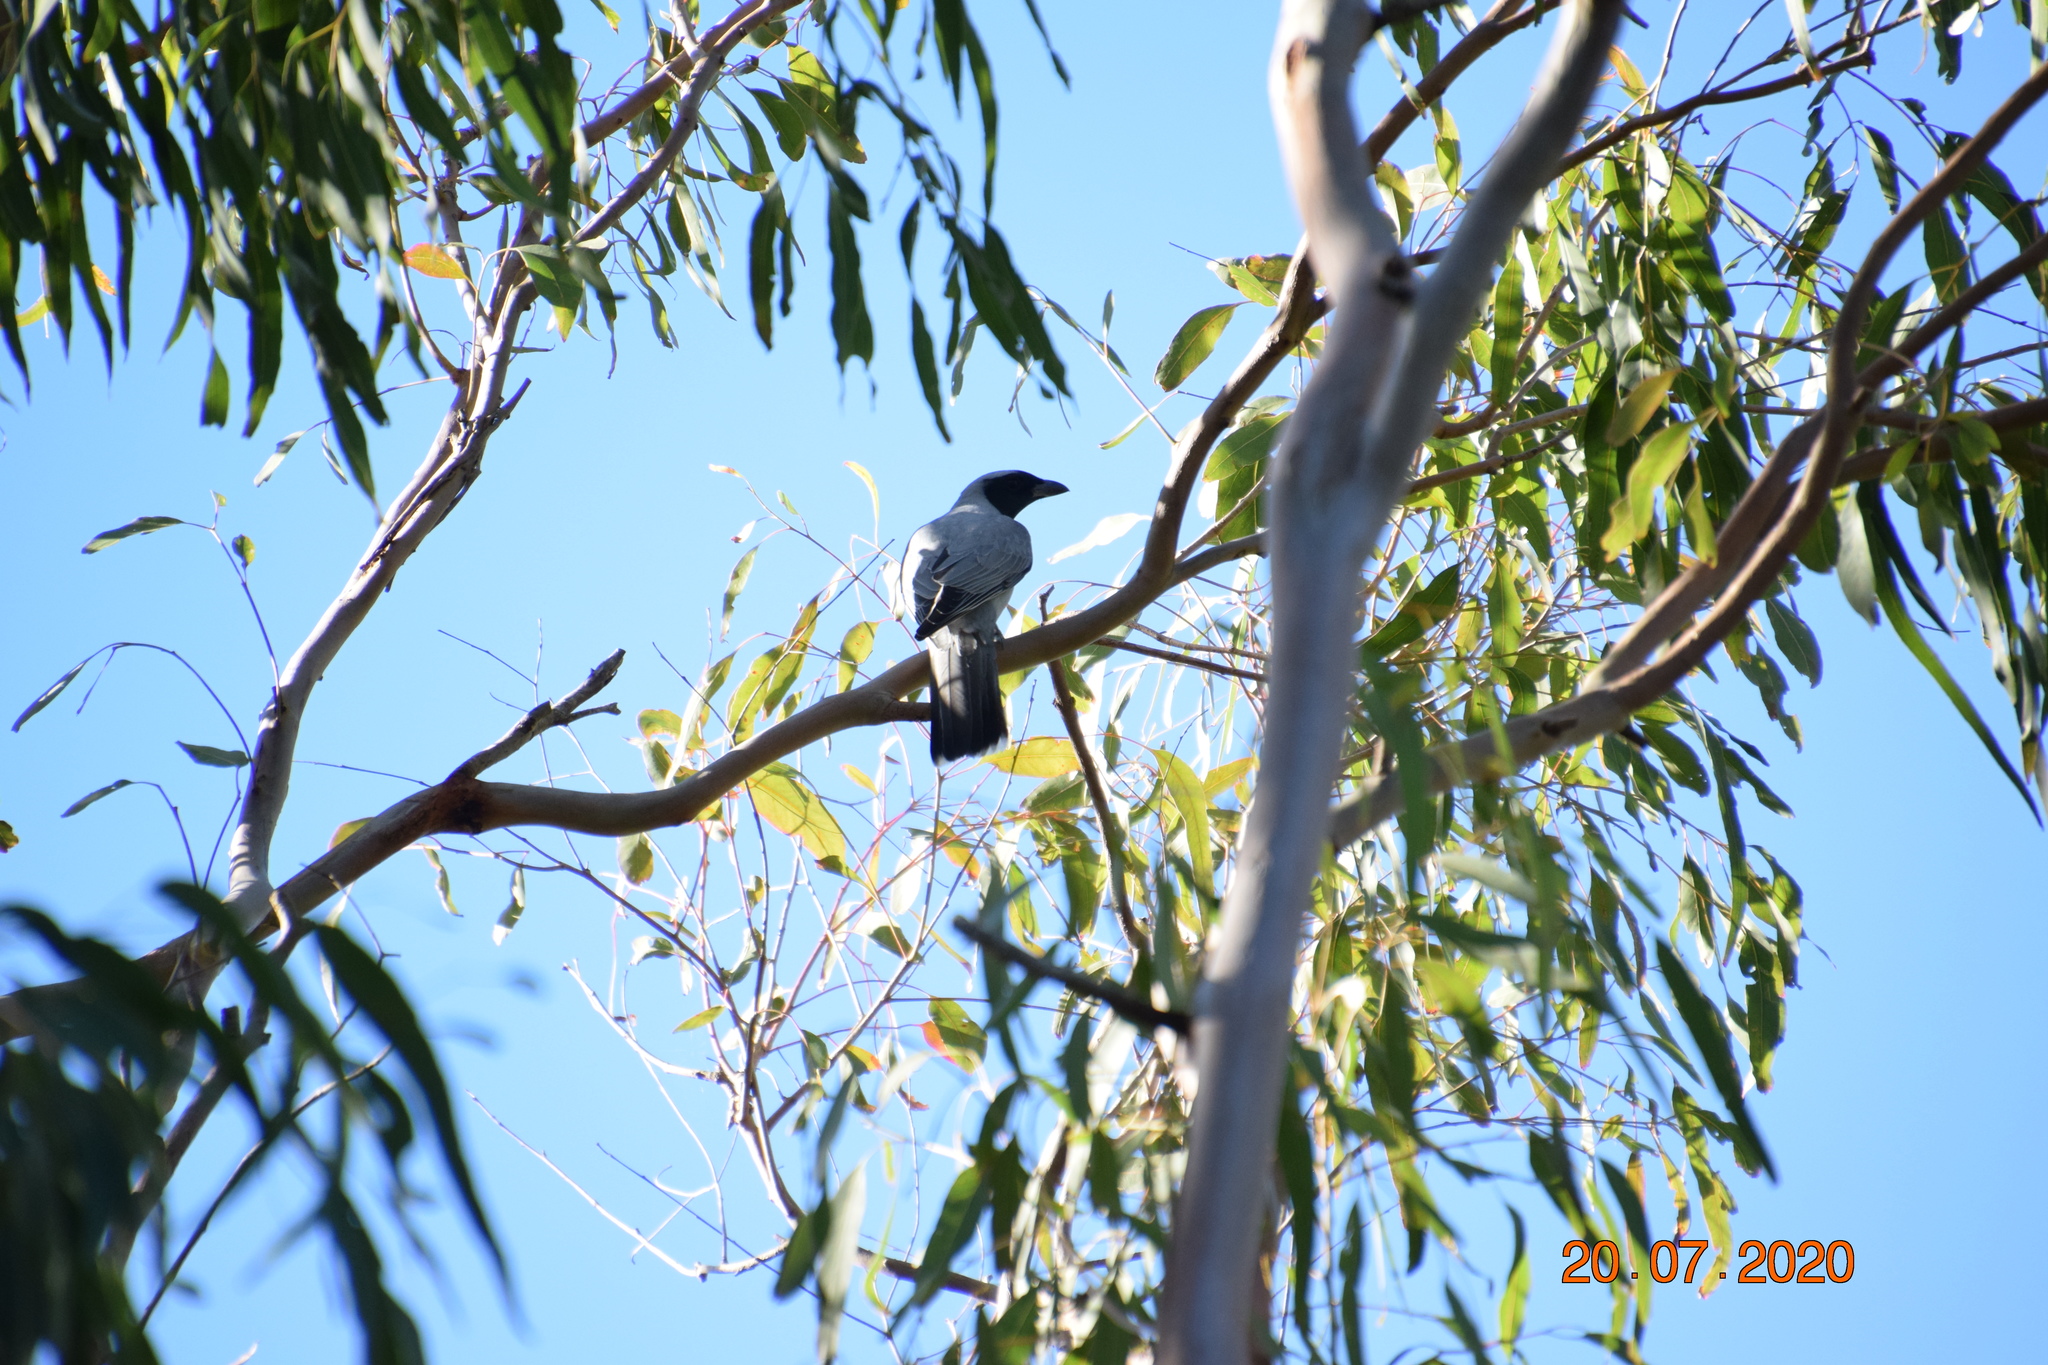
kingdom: Animalia
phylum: Chordata
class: Aves
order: Passeriformes
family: Campephagidae
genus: Coracina
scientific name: Coracina novaehollandiae
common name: Black-faced cuckooshrike
